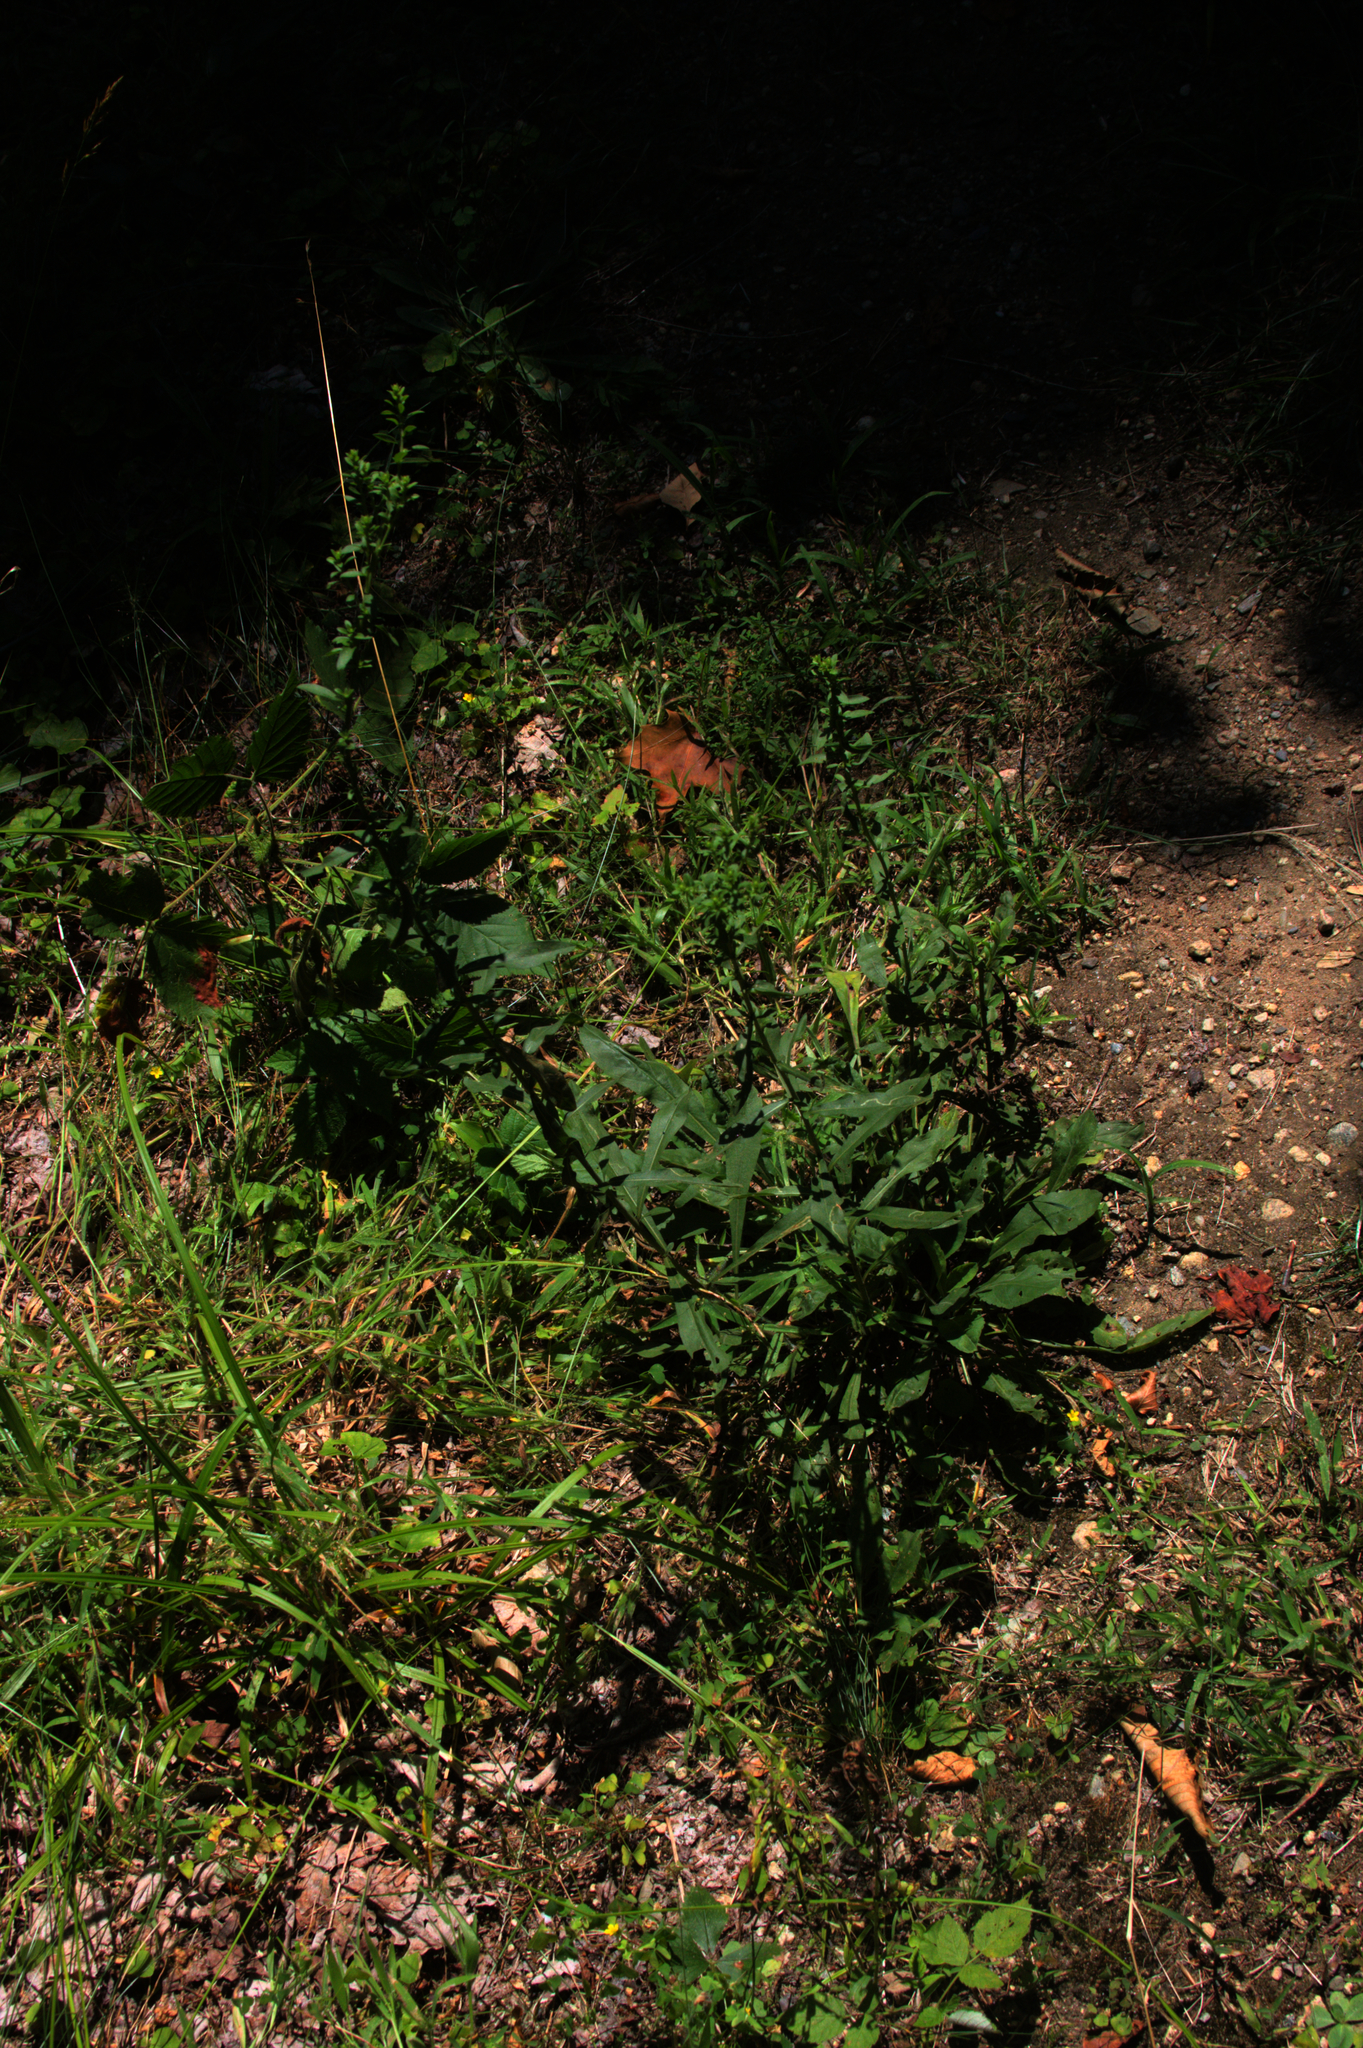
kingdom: Plantae
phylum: Tracheophyta
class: Magnoliopsida
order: Asterales
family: Asteraceae
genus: Solidago
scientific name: Solidago bicolor
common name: Silverrod
